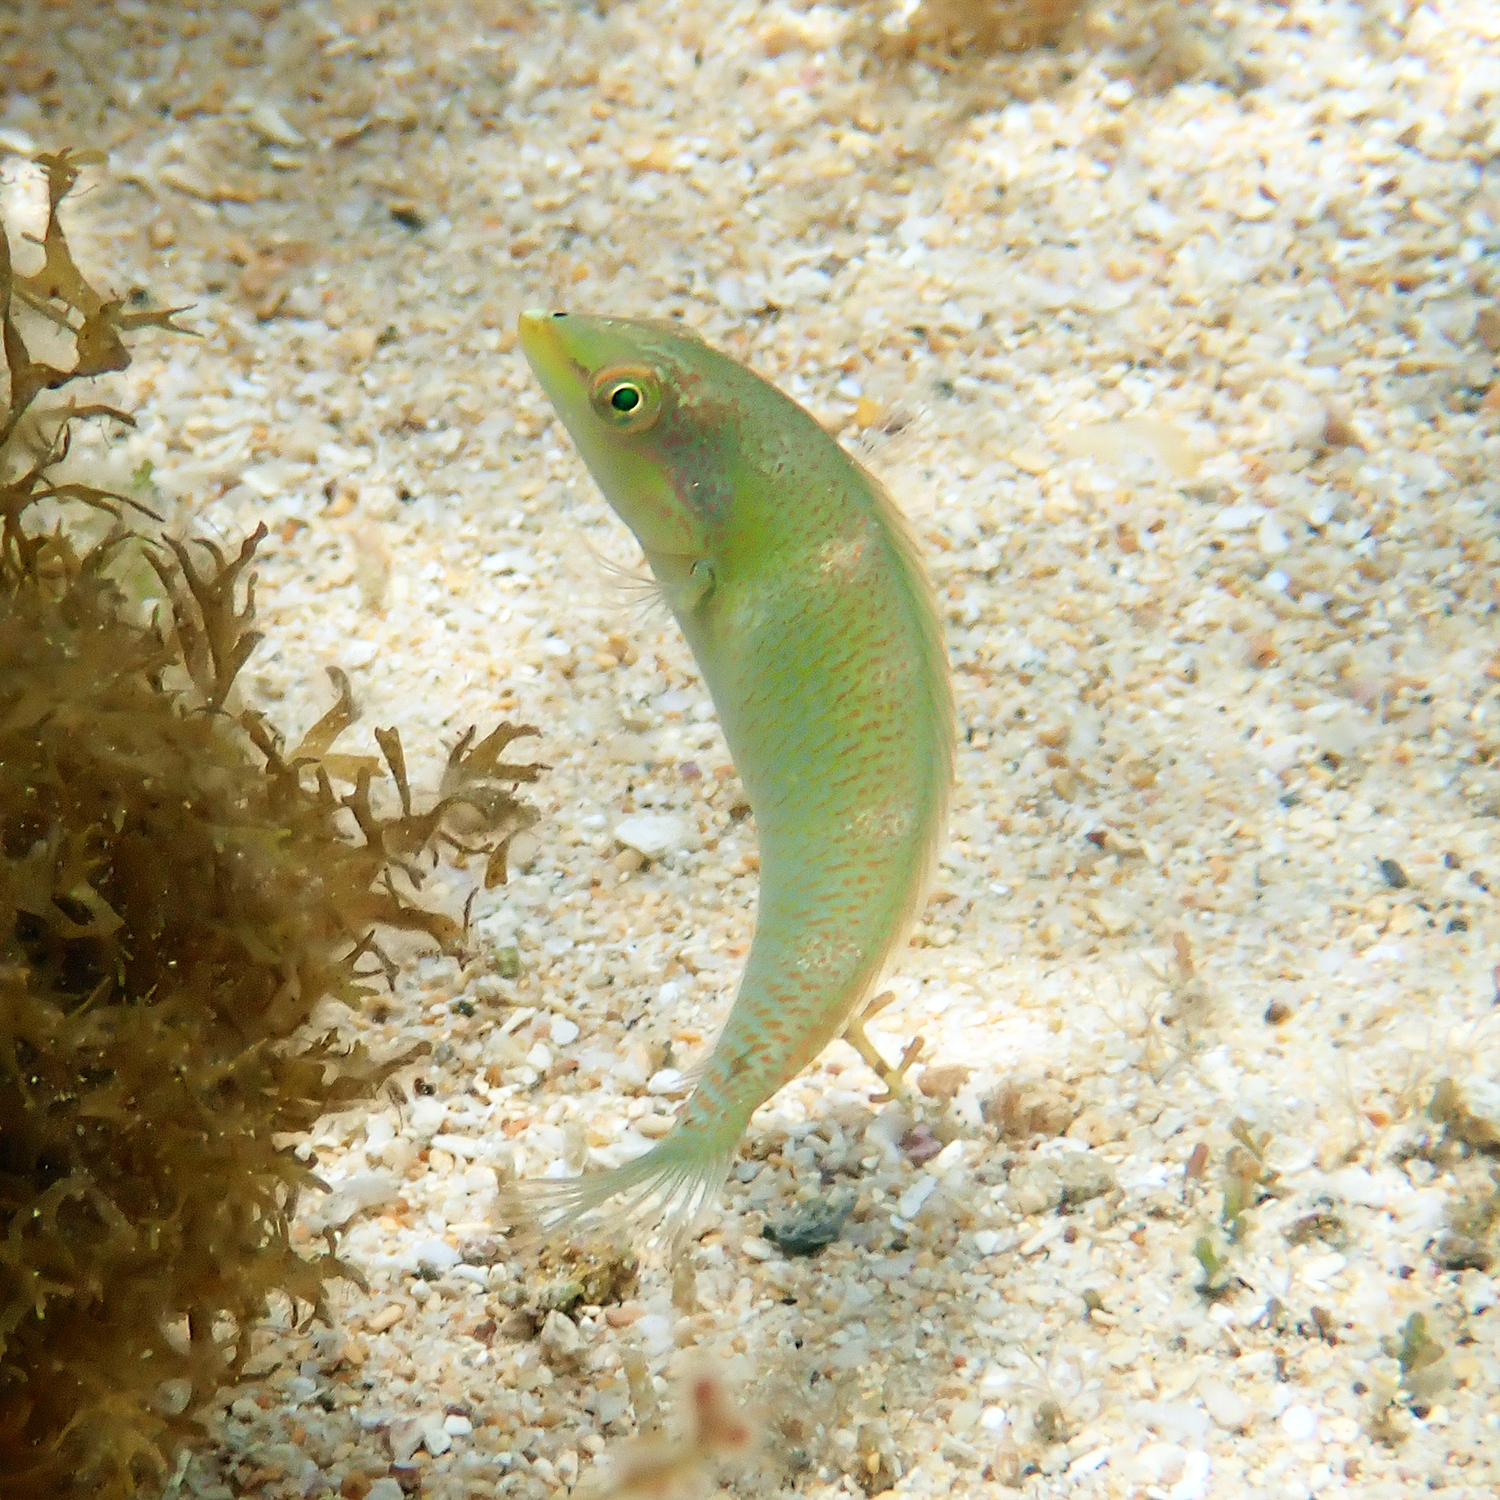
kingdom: Animalia
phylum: Chordata
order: Perciformes
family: Labridae
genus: Halichoeres
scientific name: Halichoeres trimaculatus
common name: Three-spot wrasse
